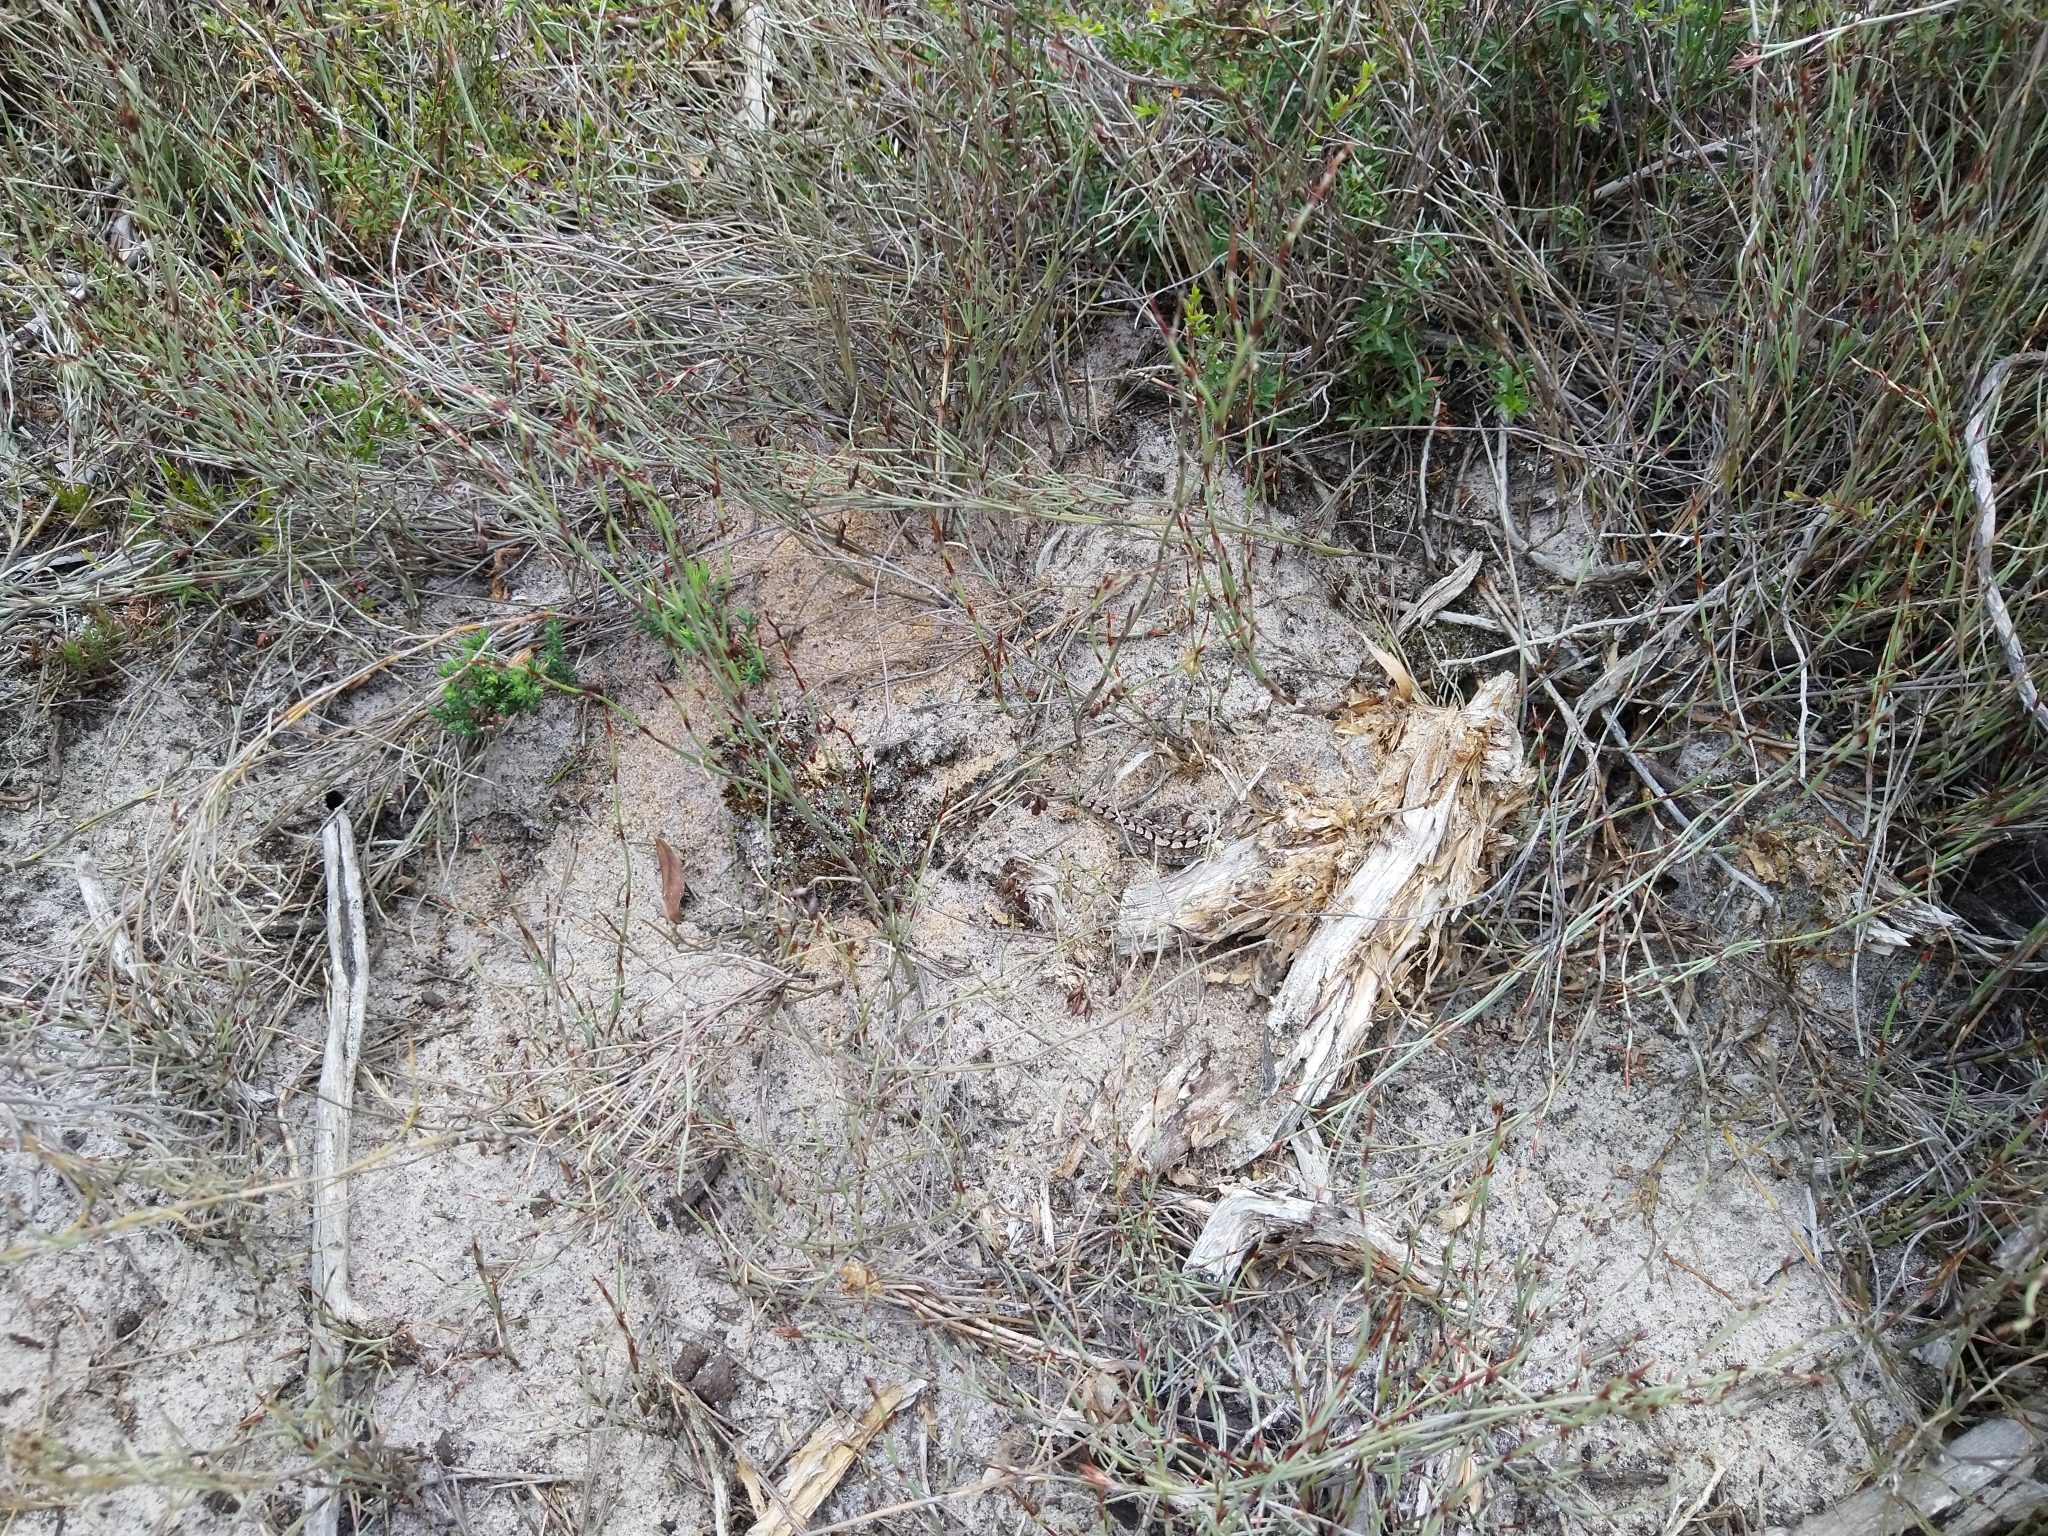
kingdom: Animalia
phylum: Chordata
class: Squamata
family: Agamidae
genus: Amphibolurus
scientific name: Amphibolurus muricatus
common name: Jacky lizard
